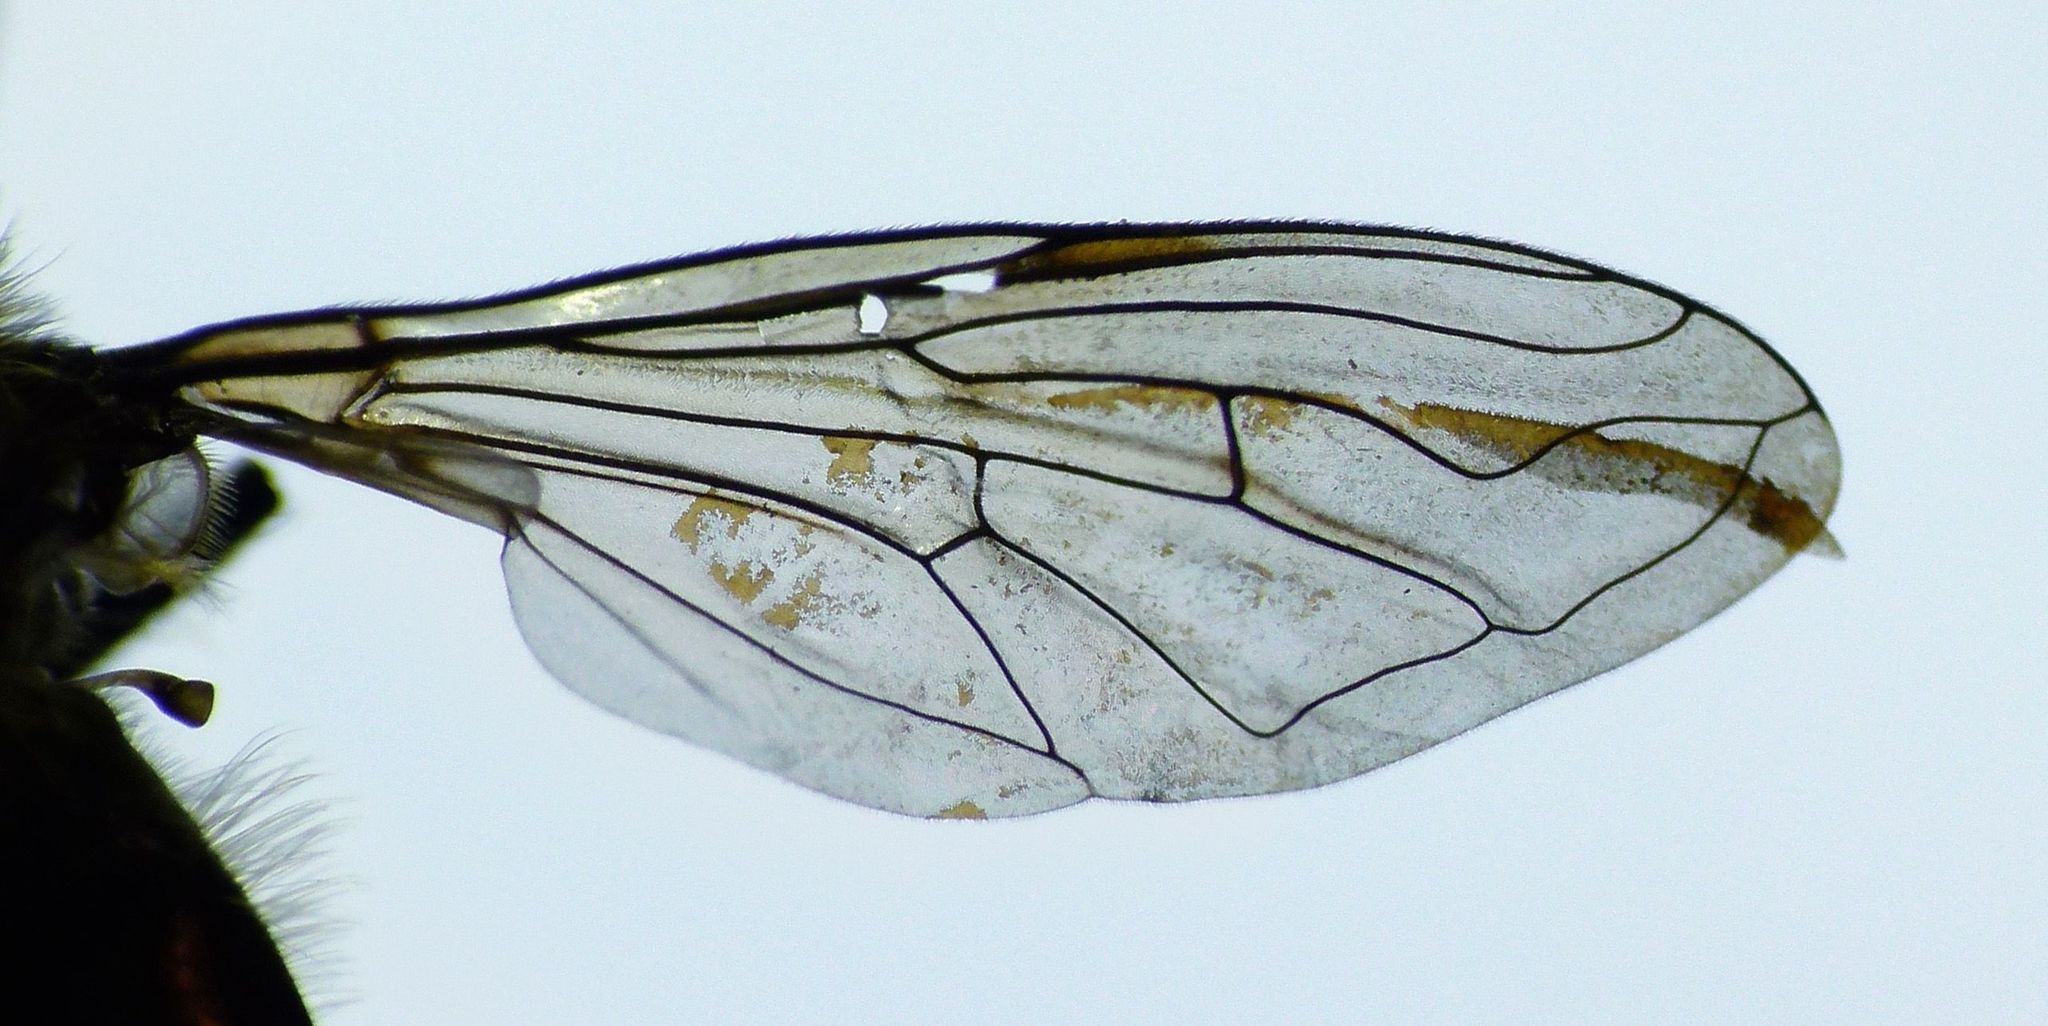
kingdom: Animalia
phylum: Arthropoda
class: Insecta
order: Diptera
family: Syrphidae
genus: Helophilus
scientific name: Helophilus hectori
